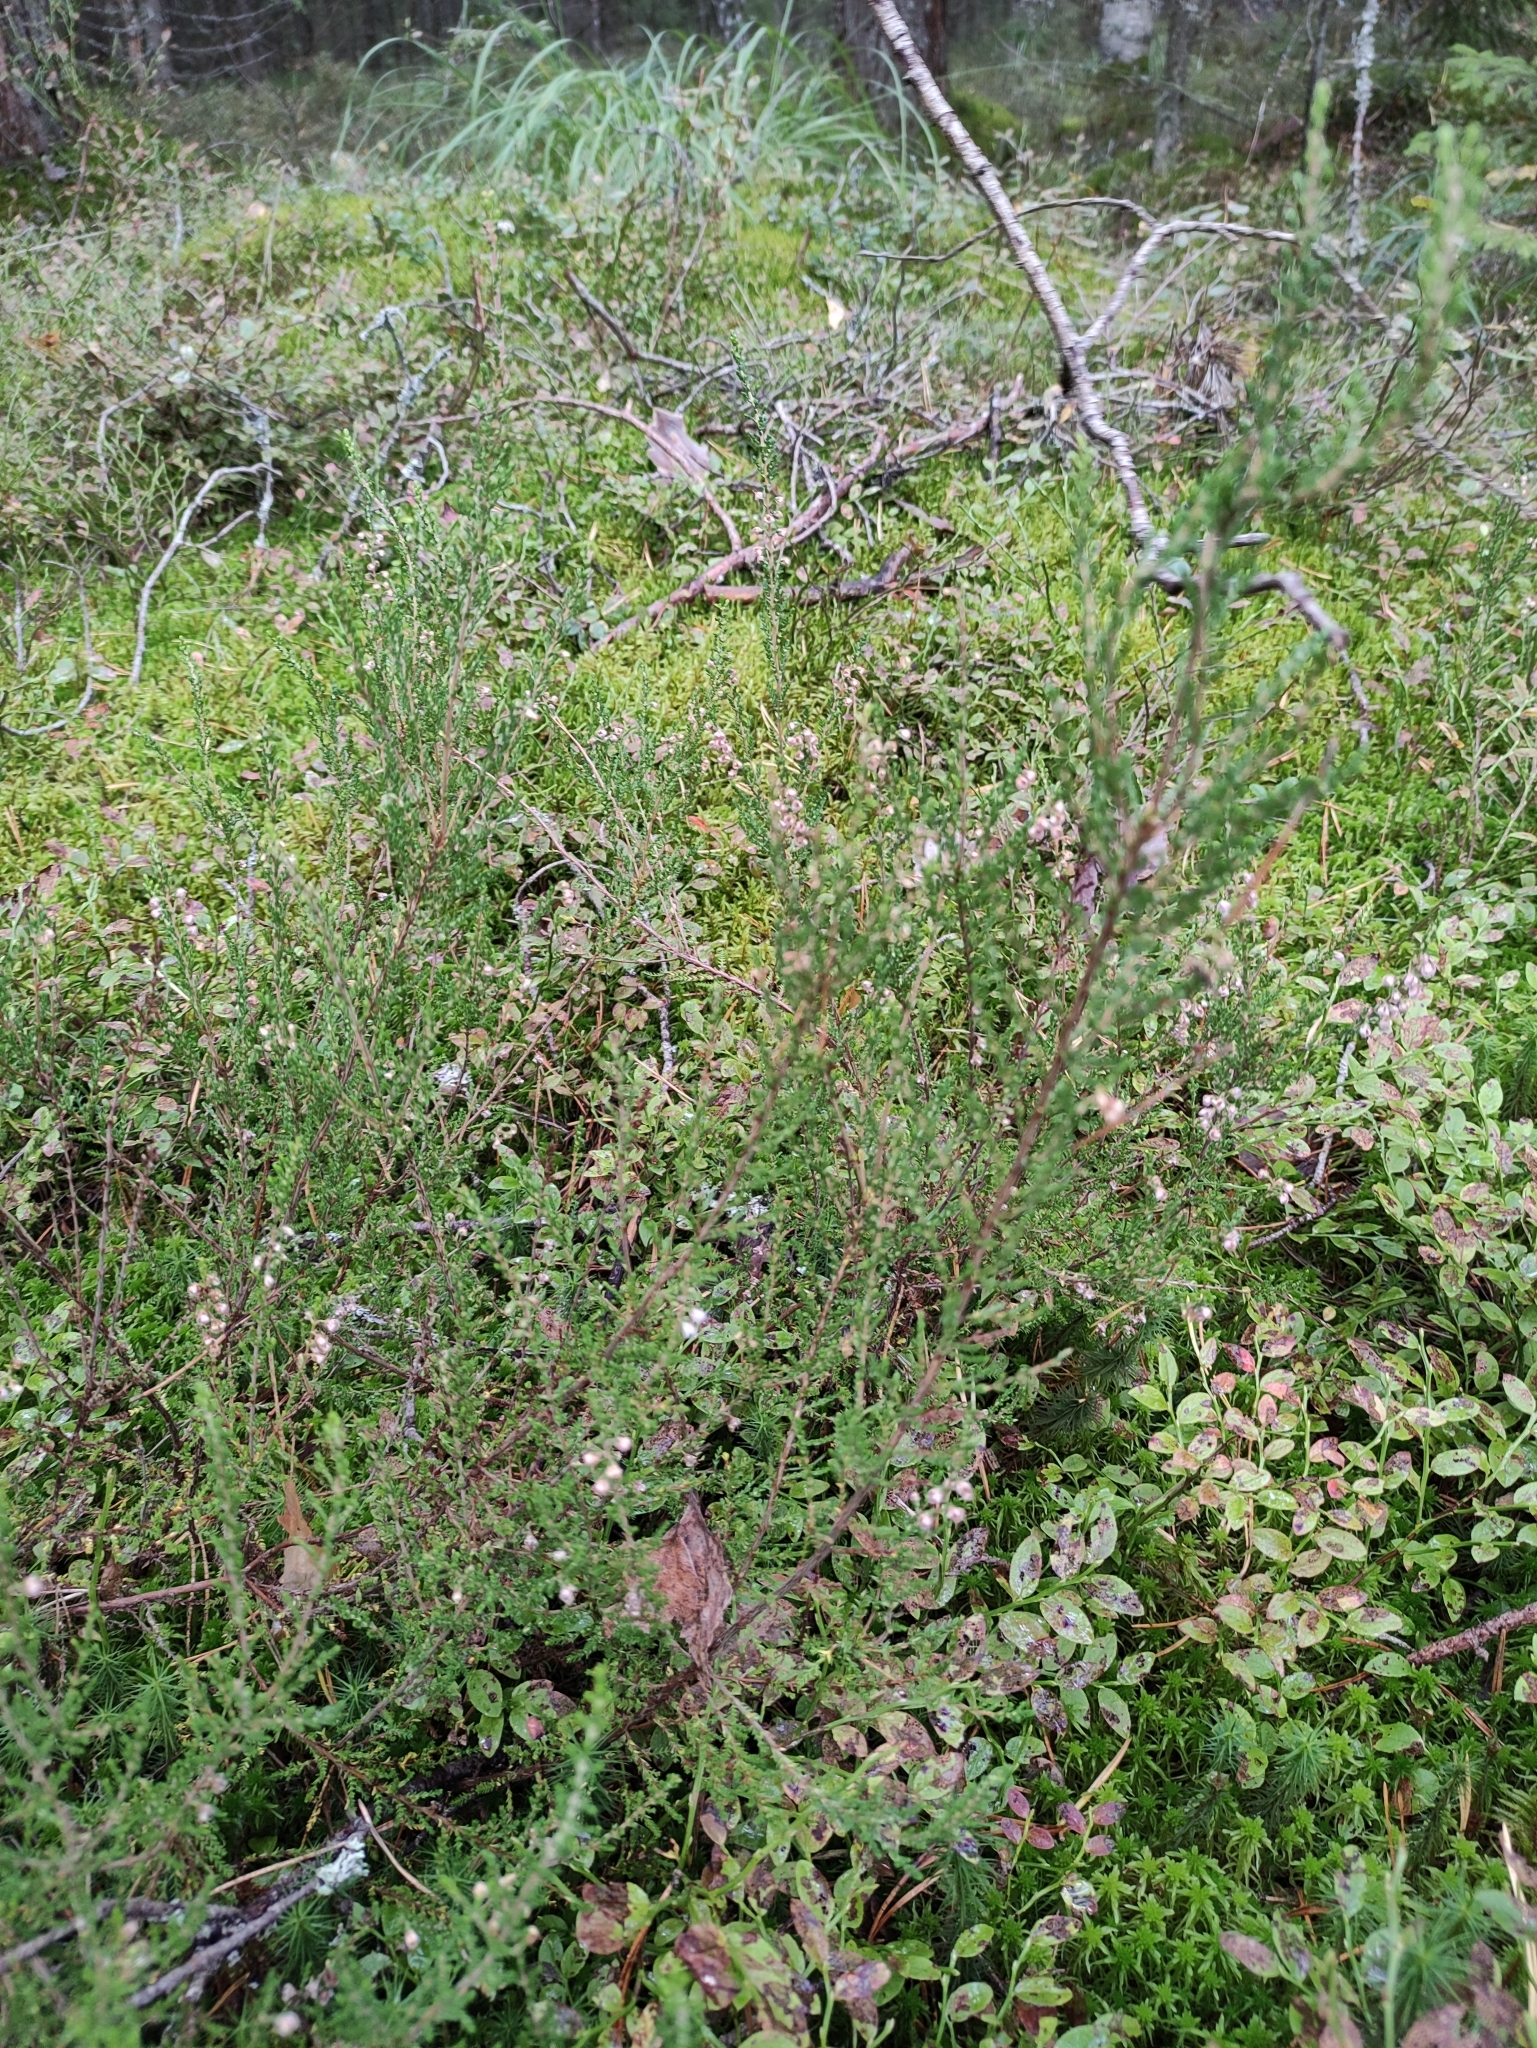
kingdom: Plantae
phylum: Tracheophyta
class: Magnoliopsida
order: Ericales
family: Ericaceae
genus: Calluna
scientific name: Calluna vulgaris
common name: Heather
